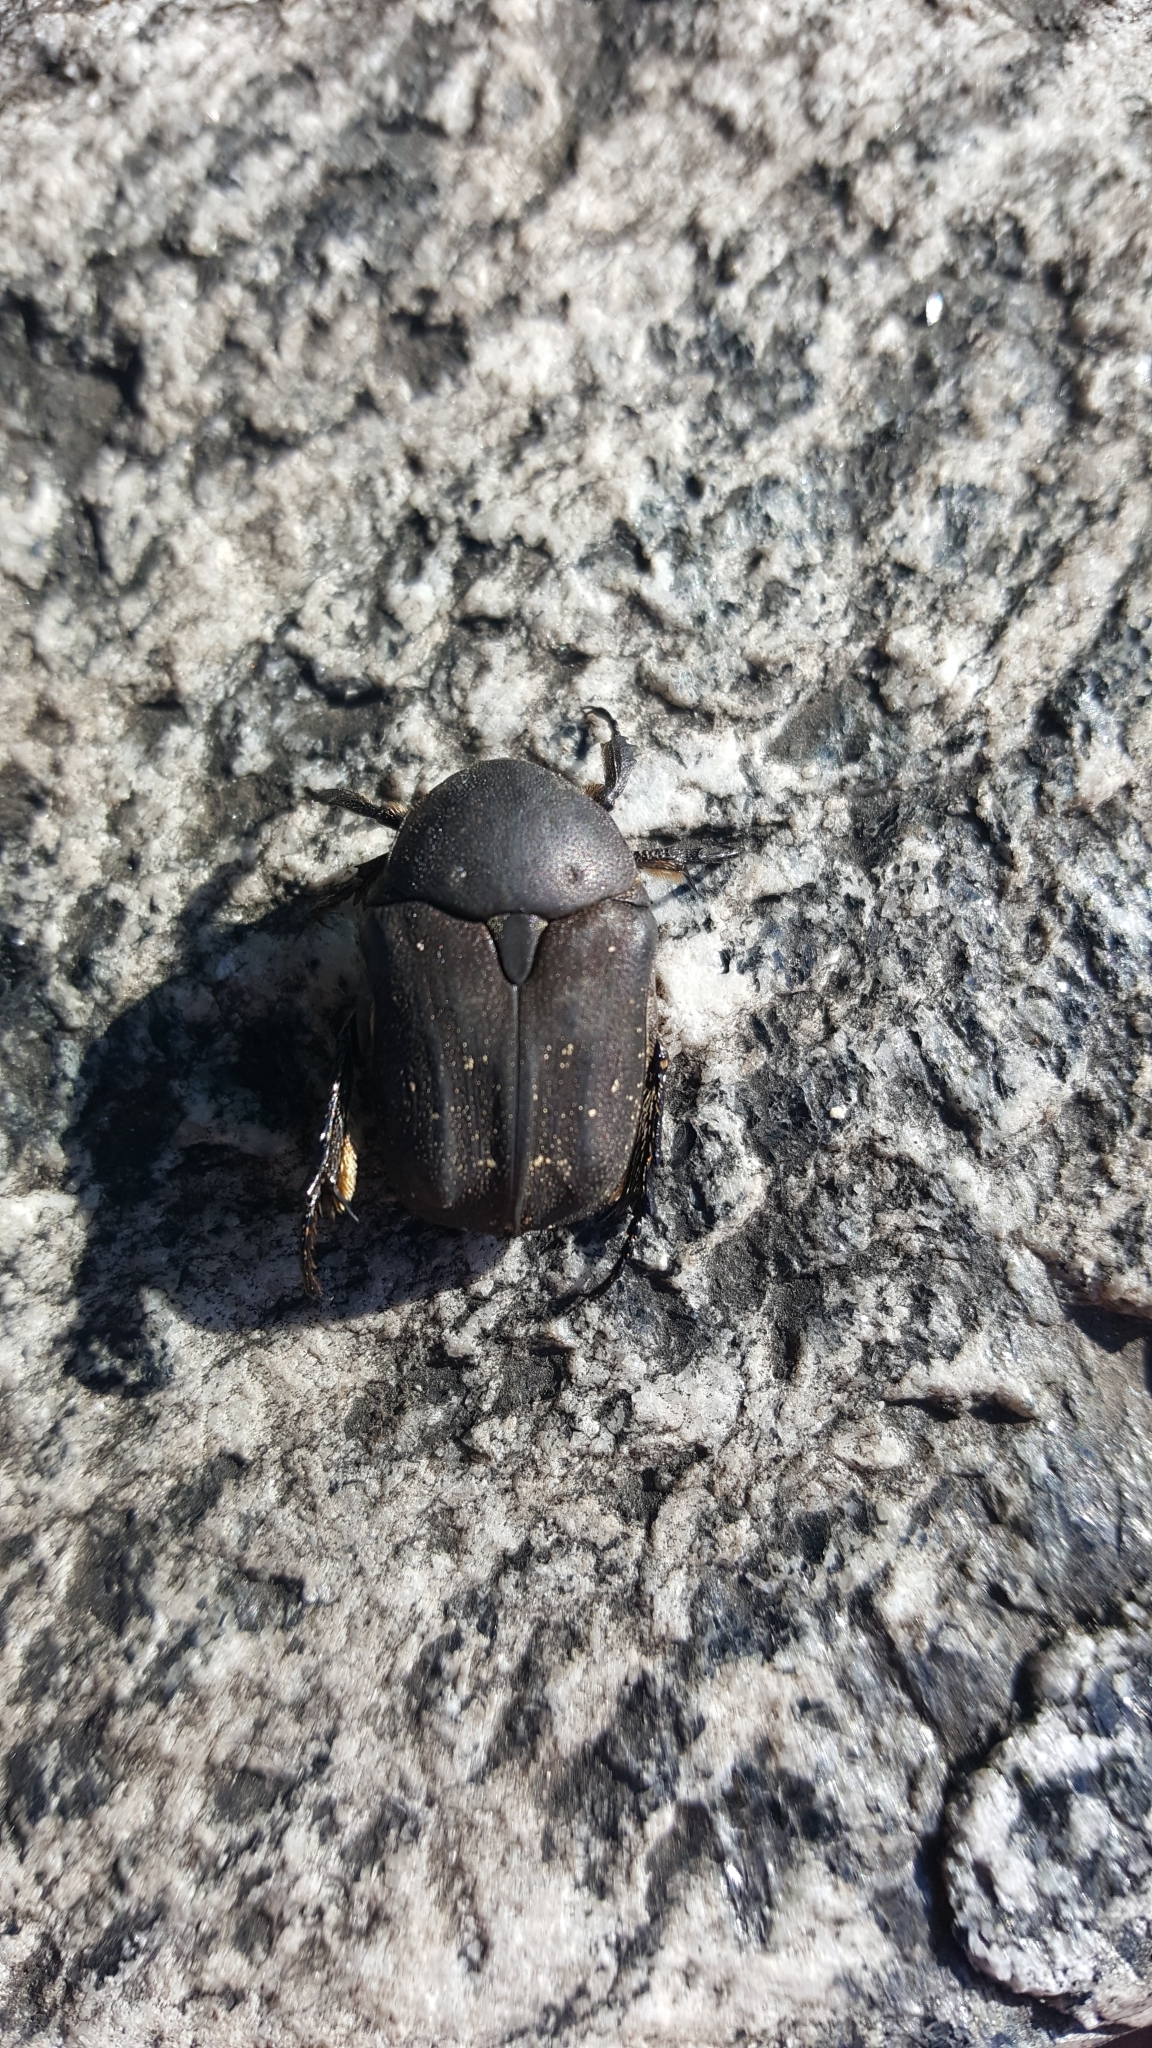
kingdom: Animalia
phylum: Arthropoda
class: Insecta
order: Coleoptera
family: Scarabaeidae
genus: Protaetia
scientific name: Protaetia morio
